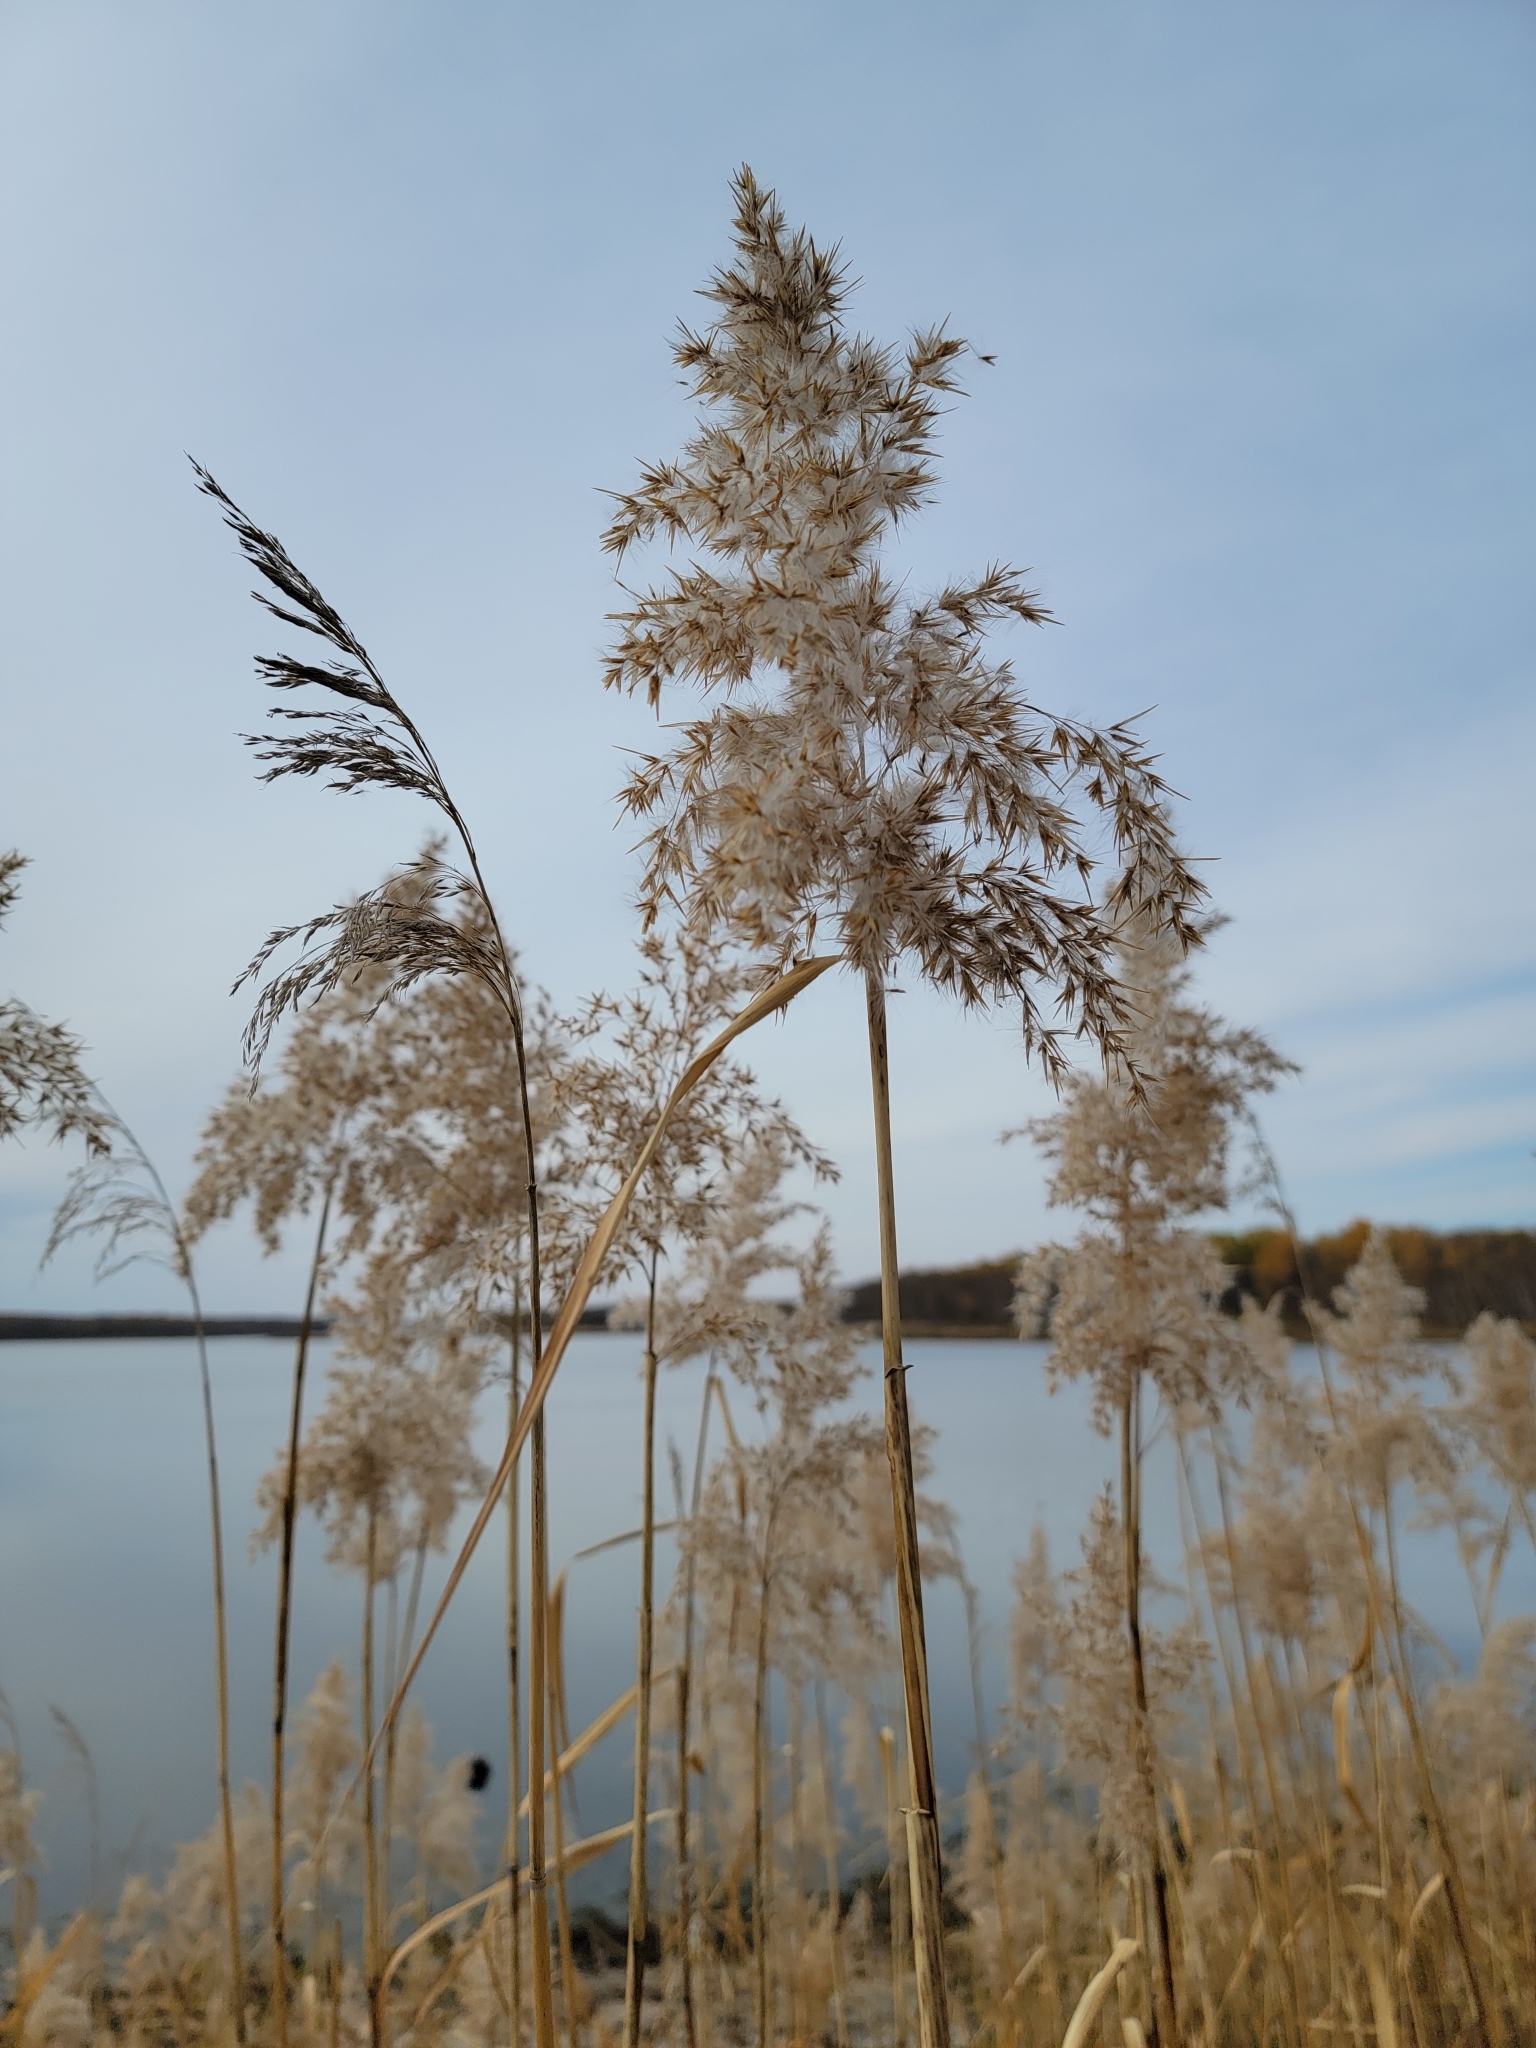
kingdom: Plantae
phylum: Tracheophyta
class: Liliopsida
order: Poales
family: Poaceae
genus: Phragmites
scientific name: Phragmites australis
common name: Common reed
